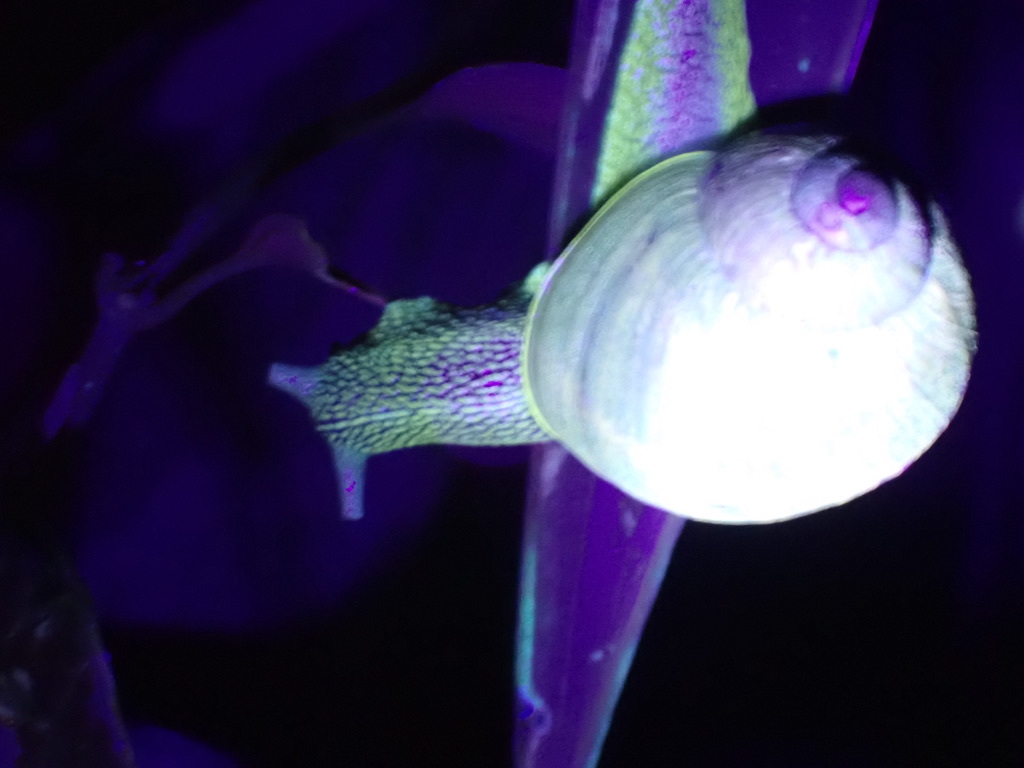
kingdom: Animalia
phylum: Mollusca
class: Gastropoda
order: Stylommatophora
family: Helicidae
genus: Cornu
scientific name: Cornu aspersum
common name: Brown garden snail
